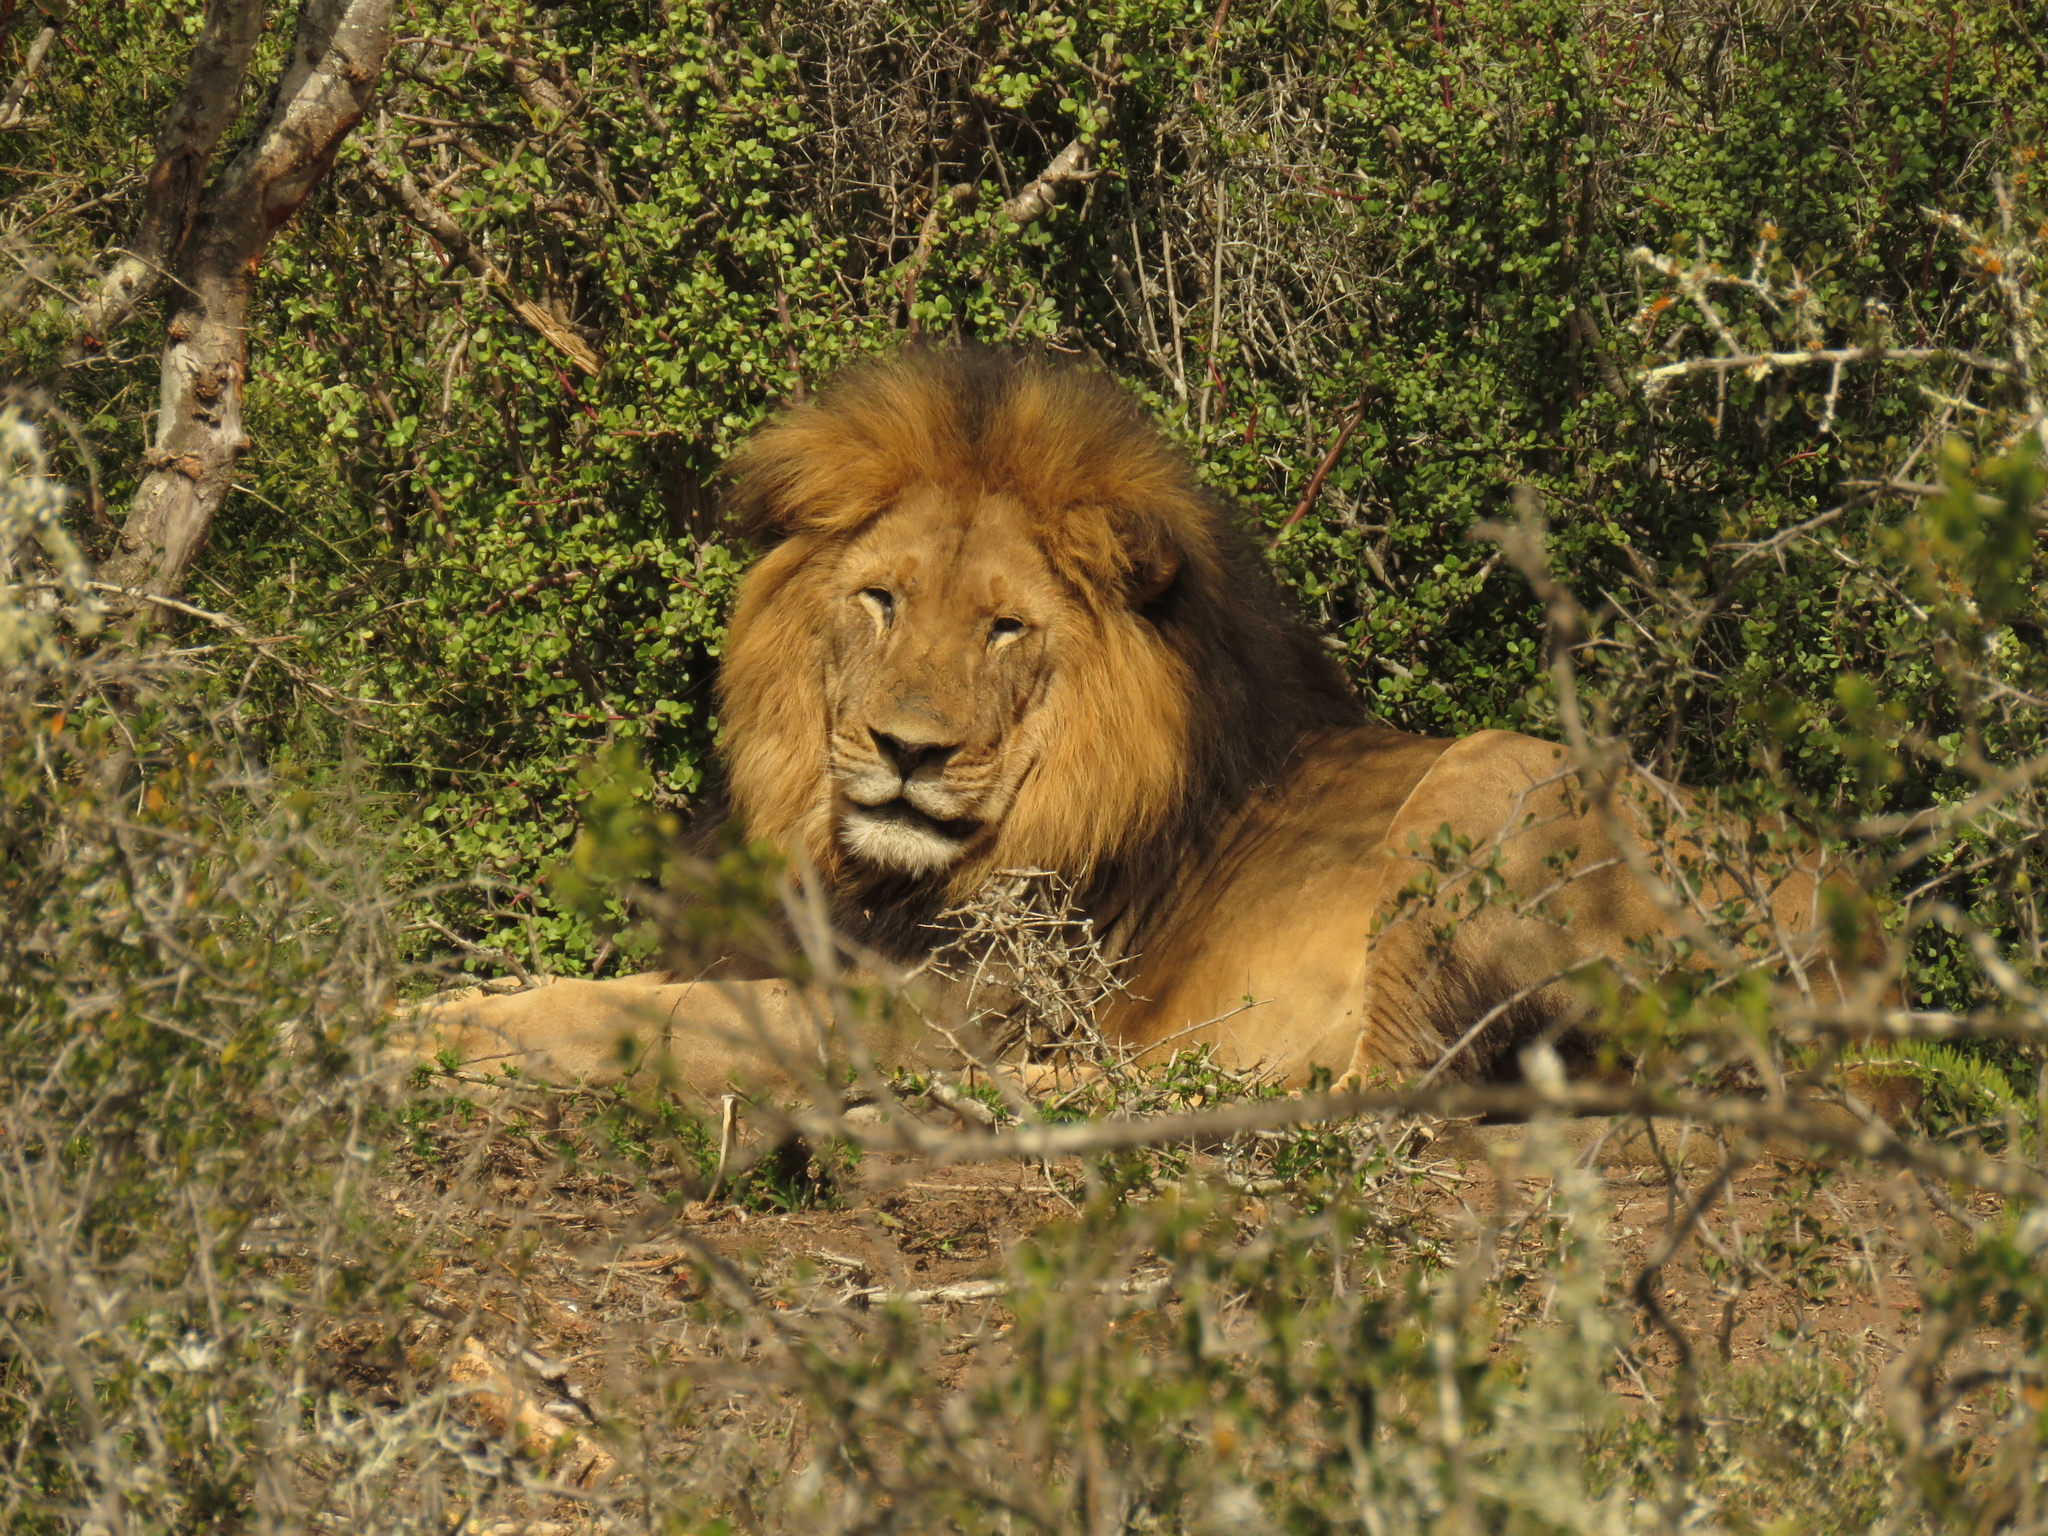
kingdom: Animalia
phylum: Chordata
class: Mammalia
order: Carnivora
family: Felidae
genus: Panthera
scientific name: Panthera leo
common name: Lion
